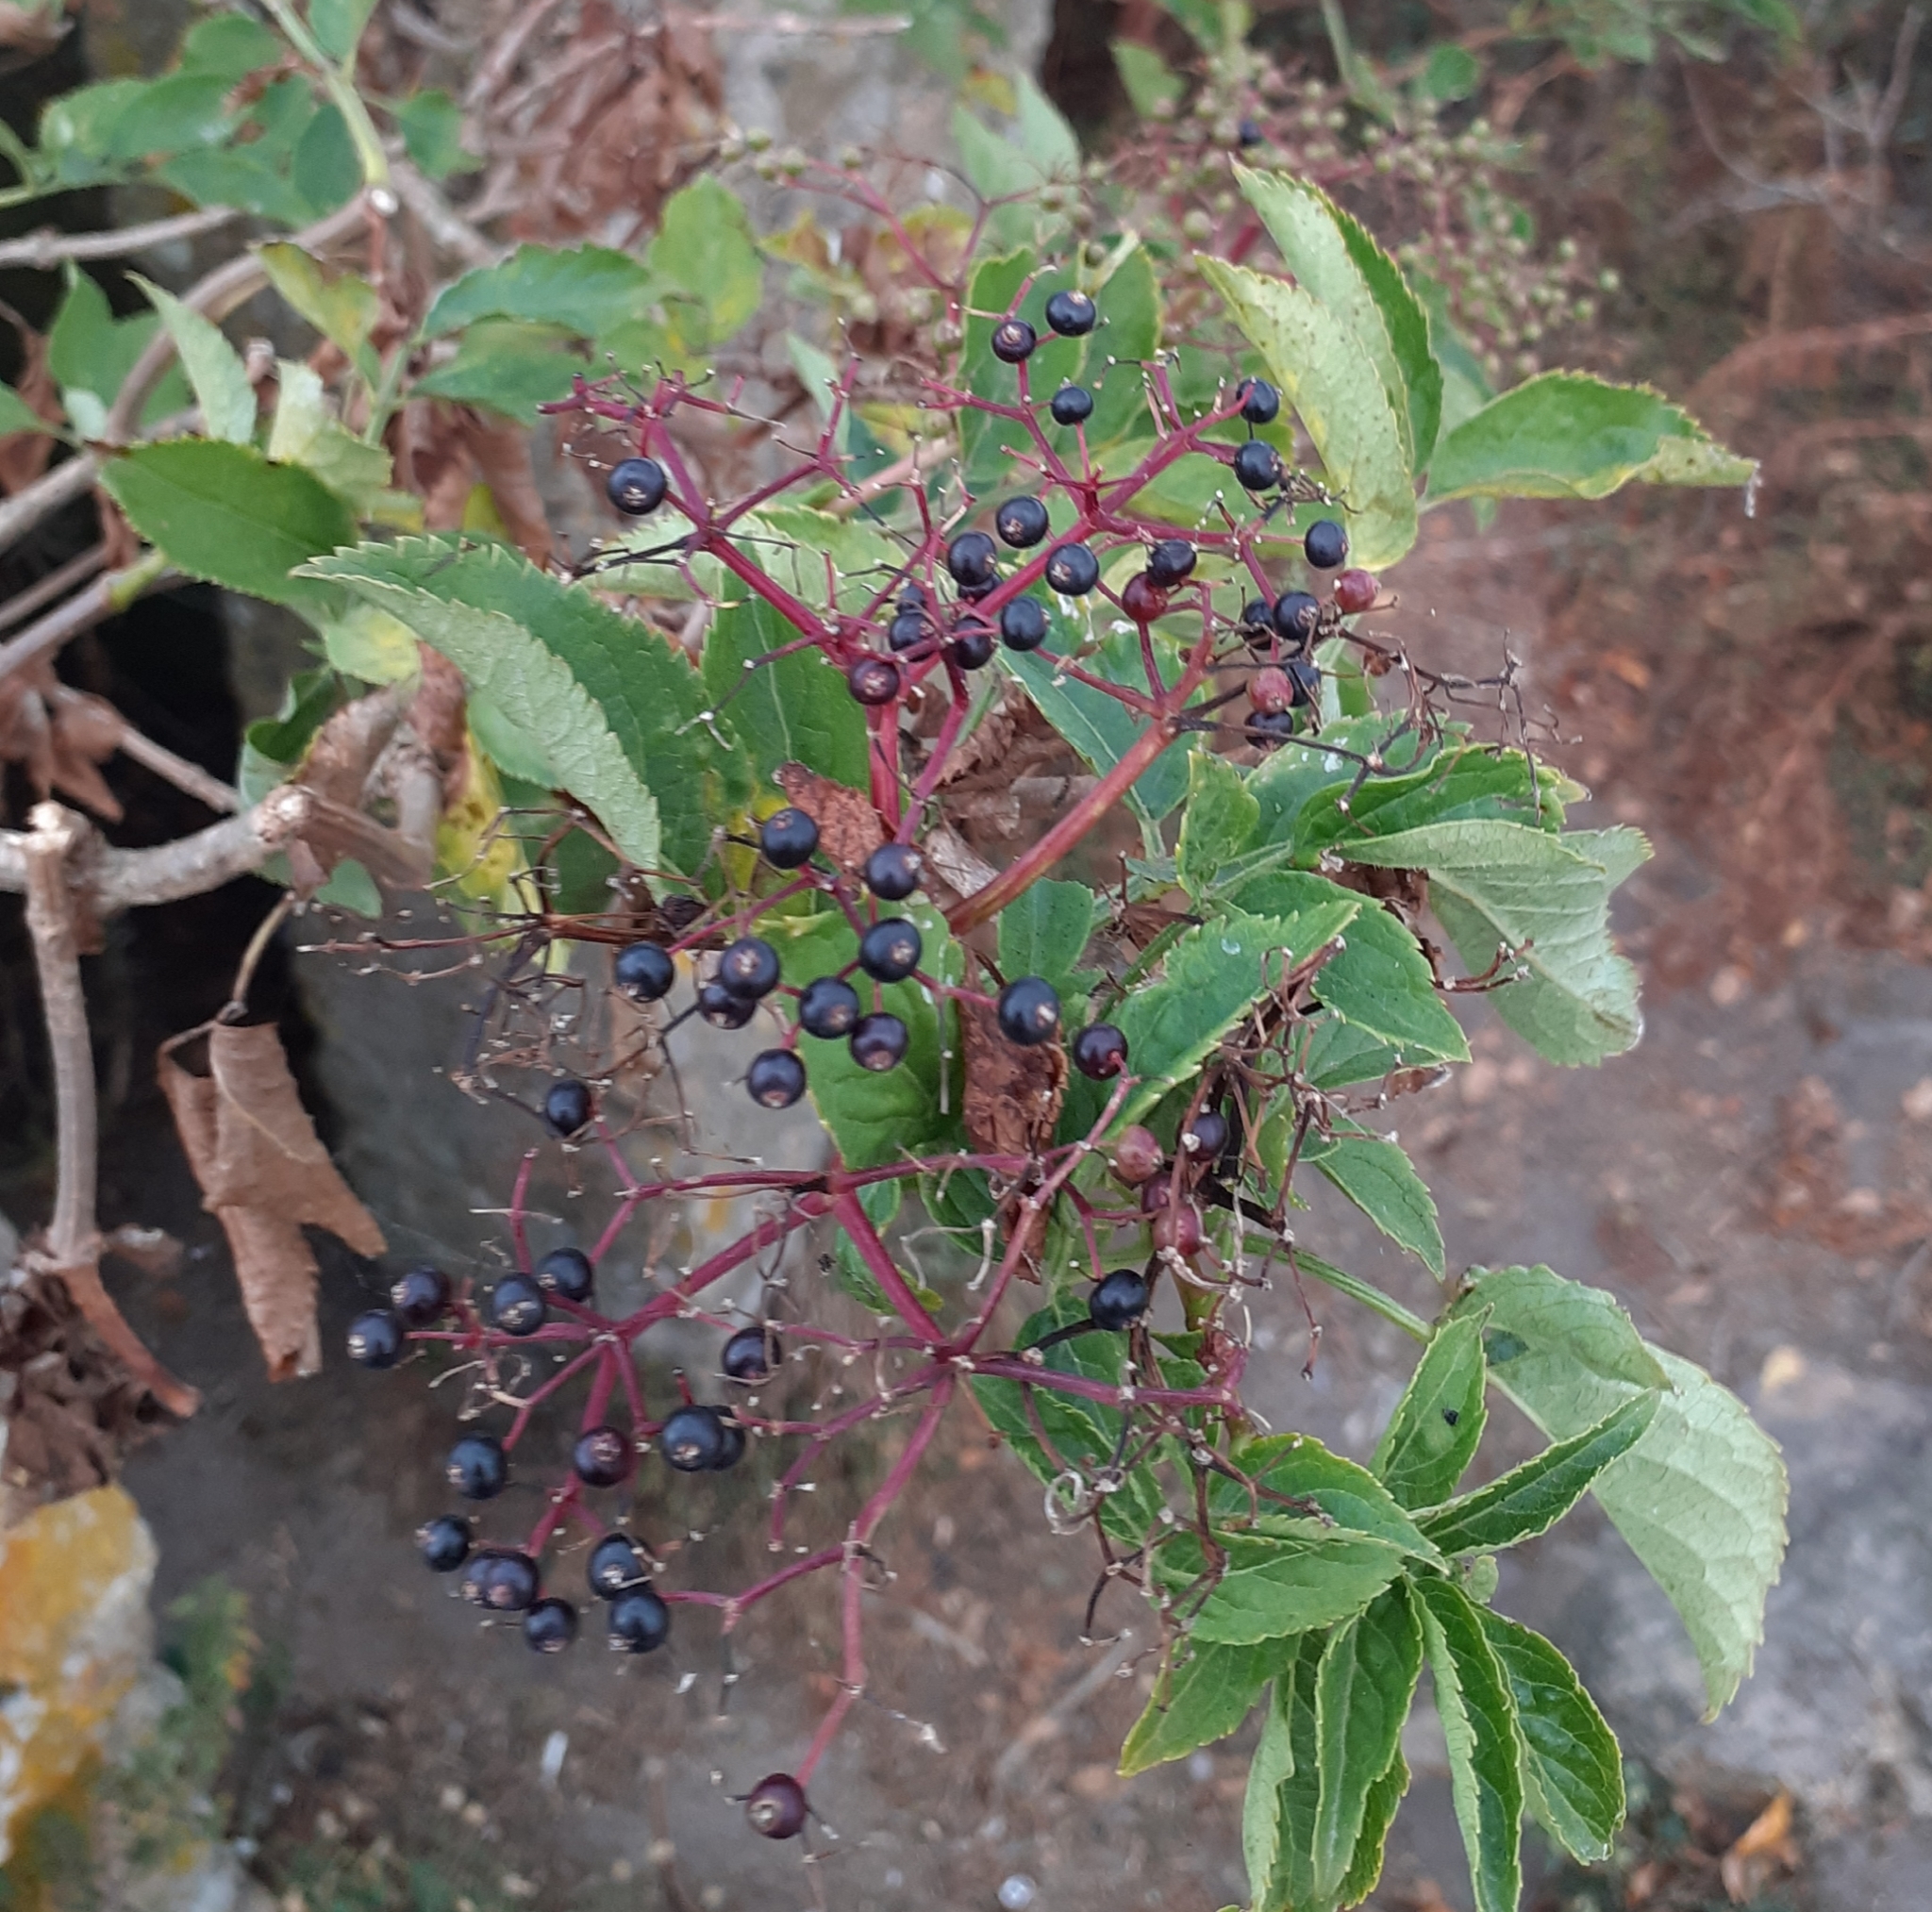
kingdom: Plantae
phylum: Tracheophyta
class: Magnoliopsida
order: Dipsacales
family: Viburnaceae
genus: Sambucus
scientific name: Sambucus nigra
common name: Elder
